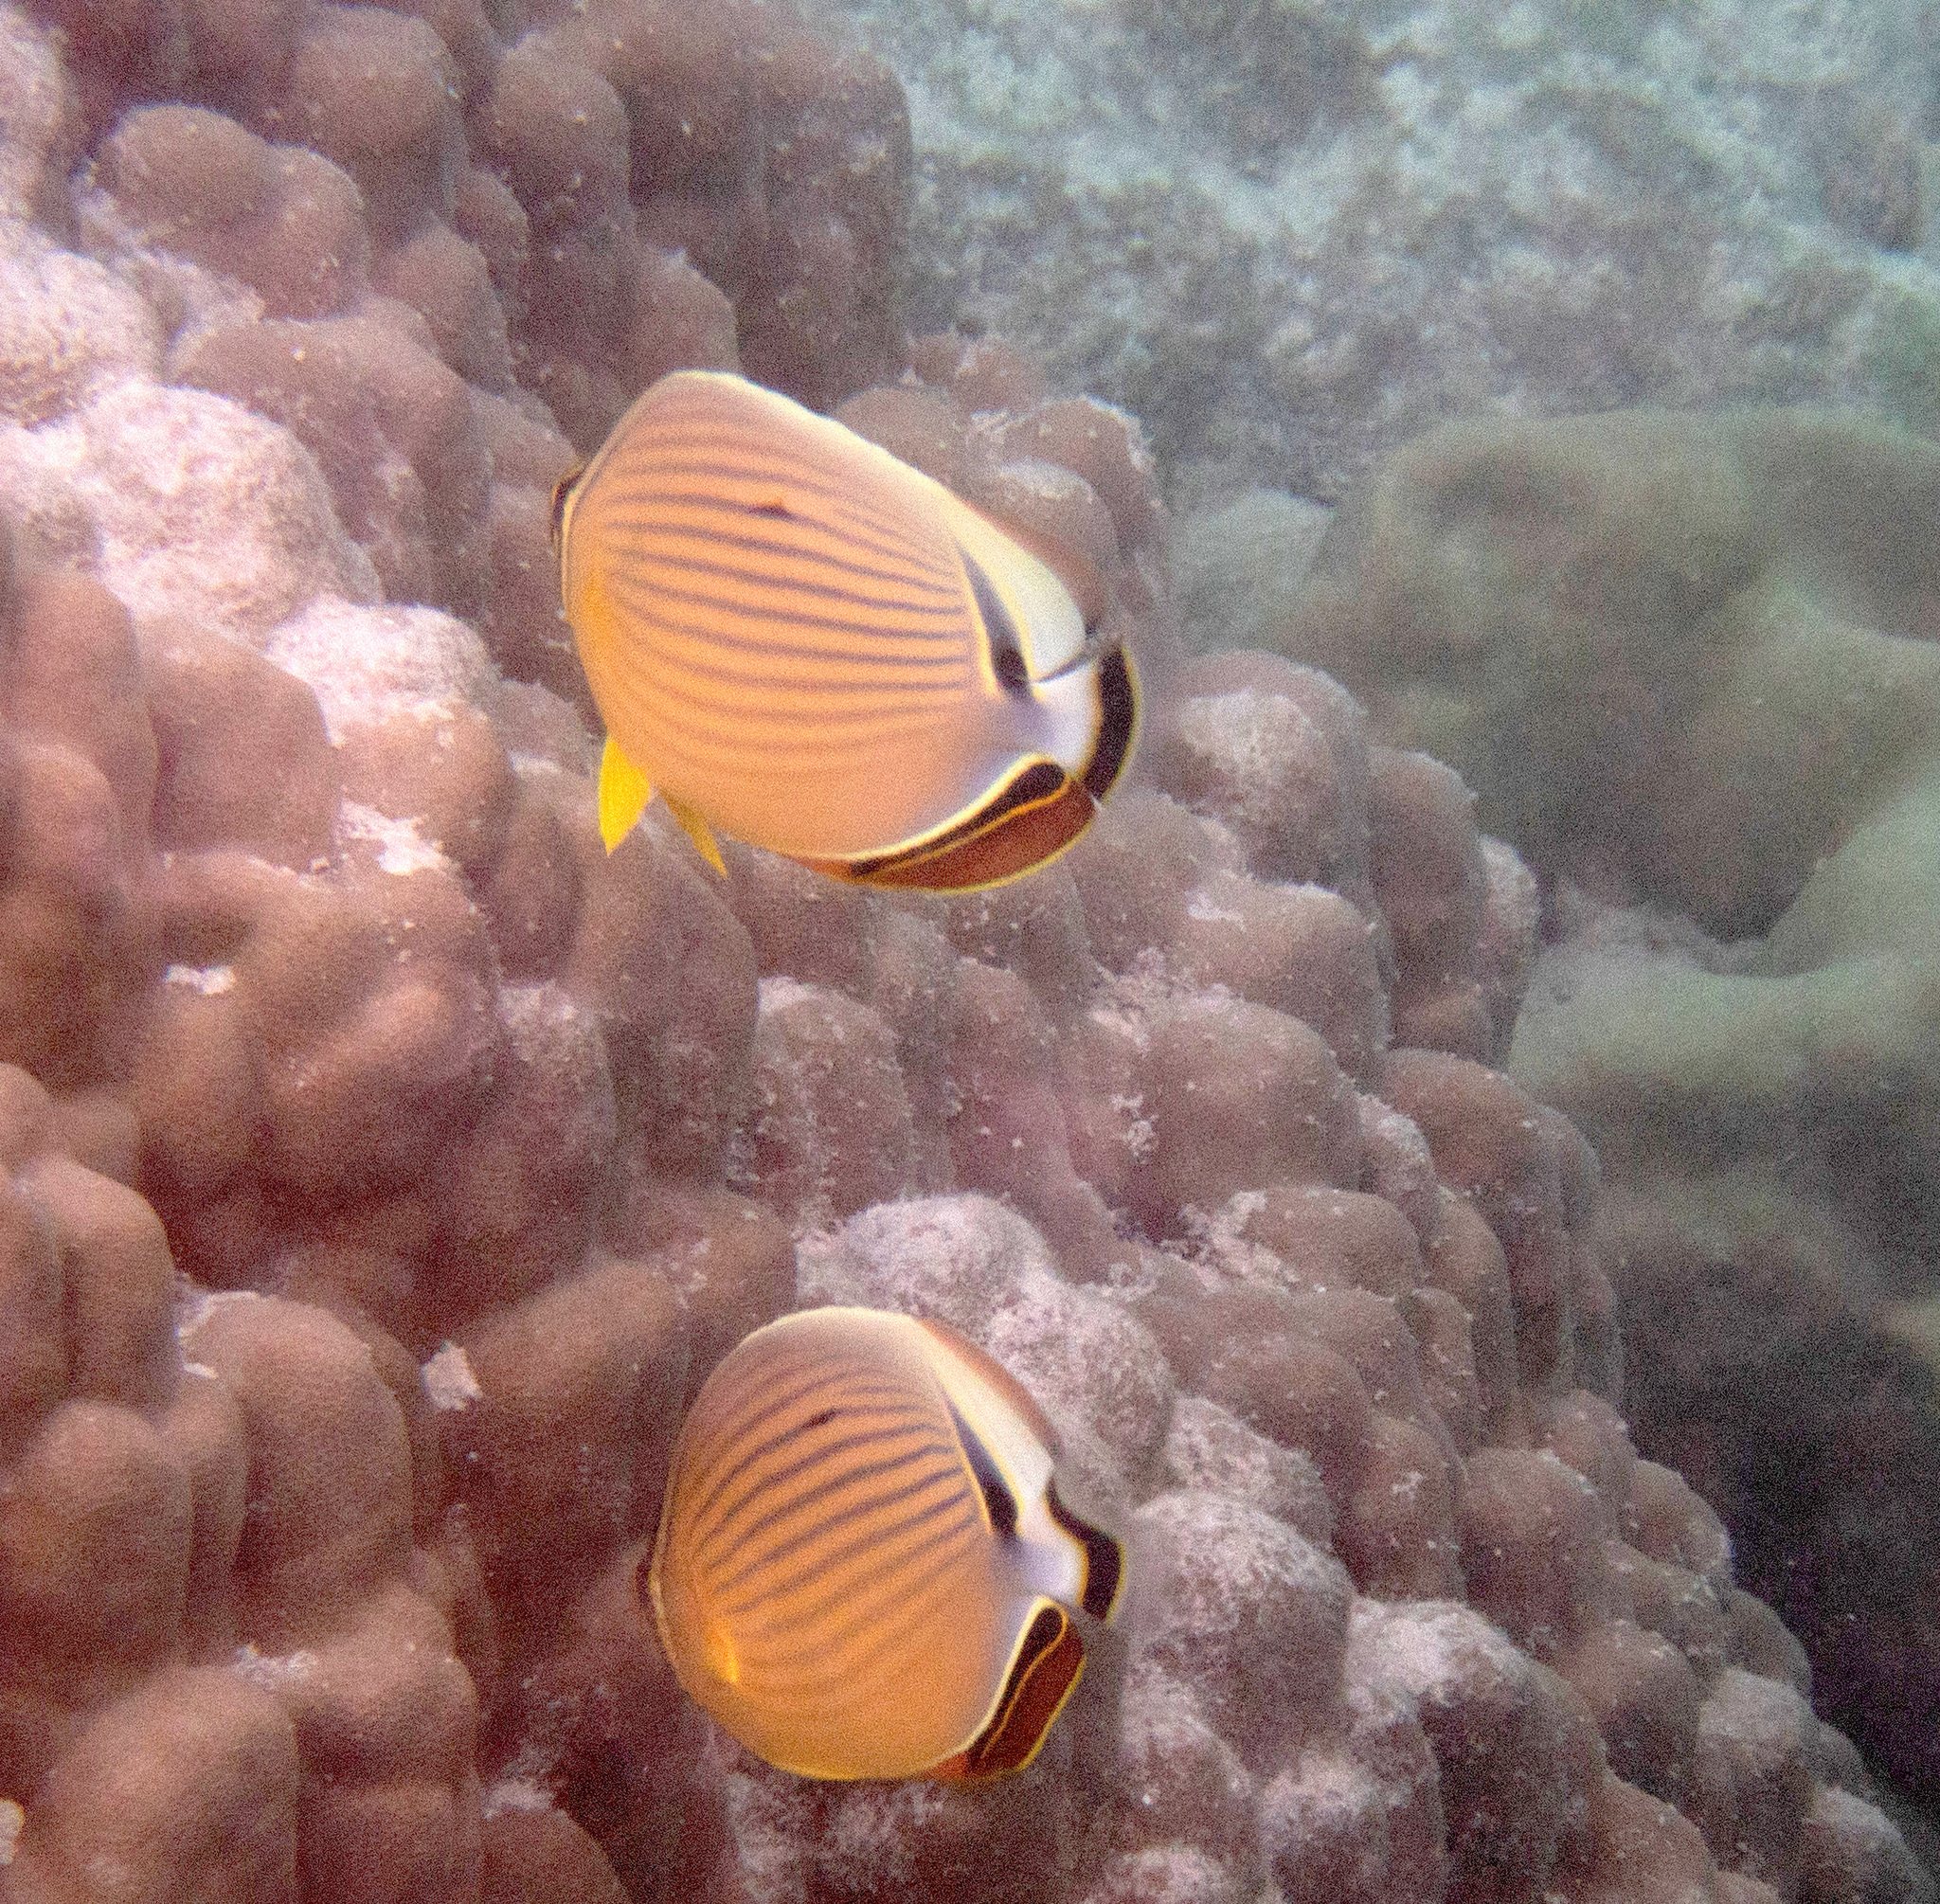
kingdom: Animalia
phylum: Chordata
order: Perciformes
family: Chaetodontidae
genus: Chaetodon
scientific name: Chaetodon lunulatus
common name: Redfin butterflyfish
